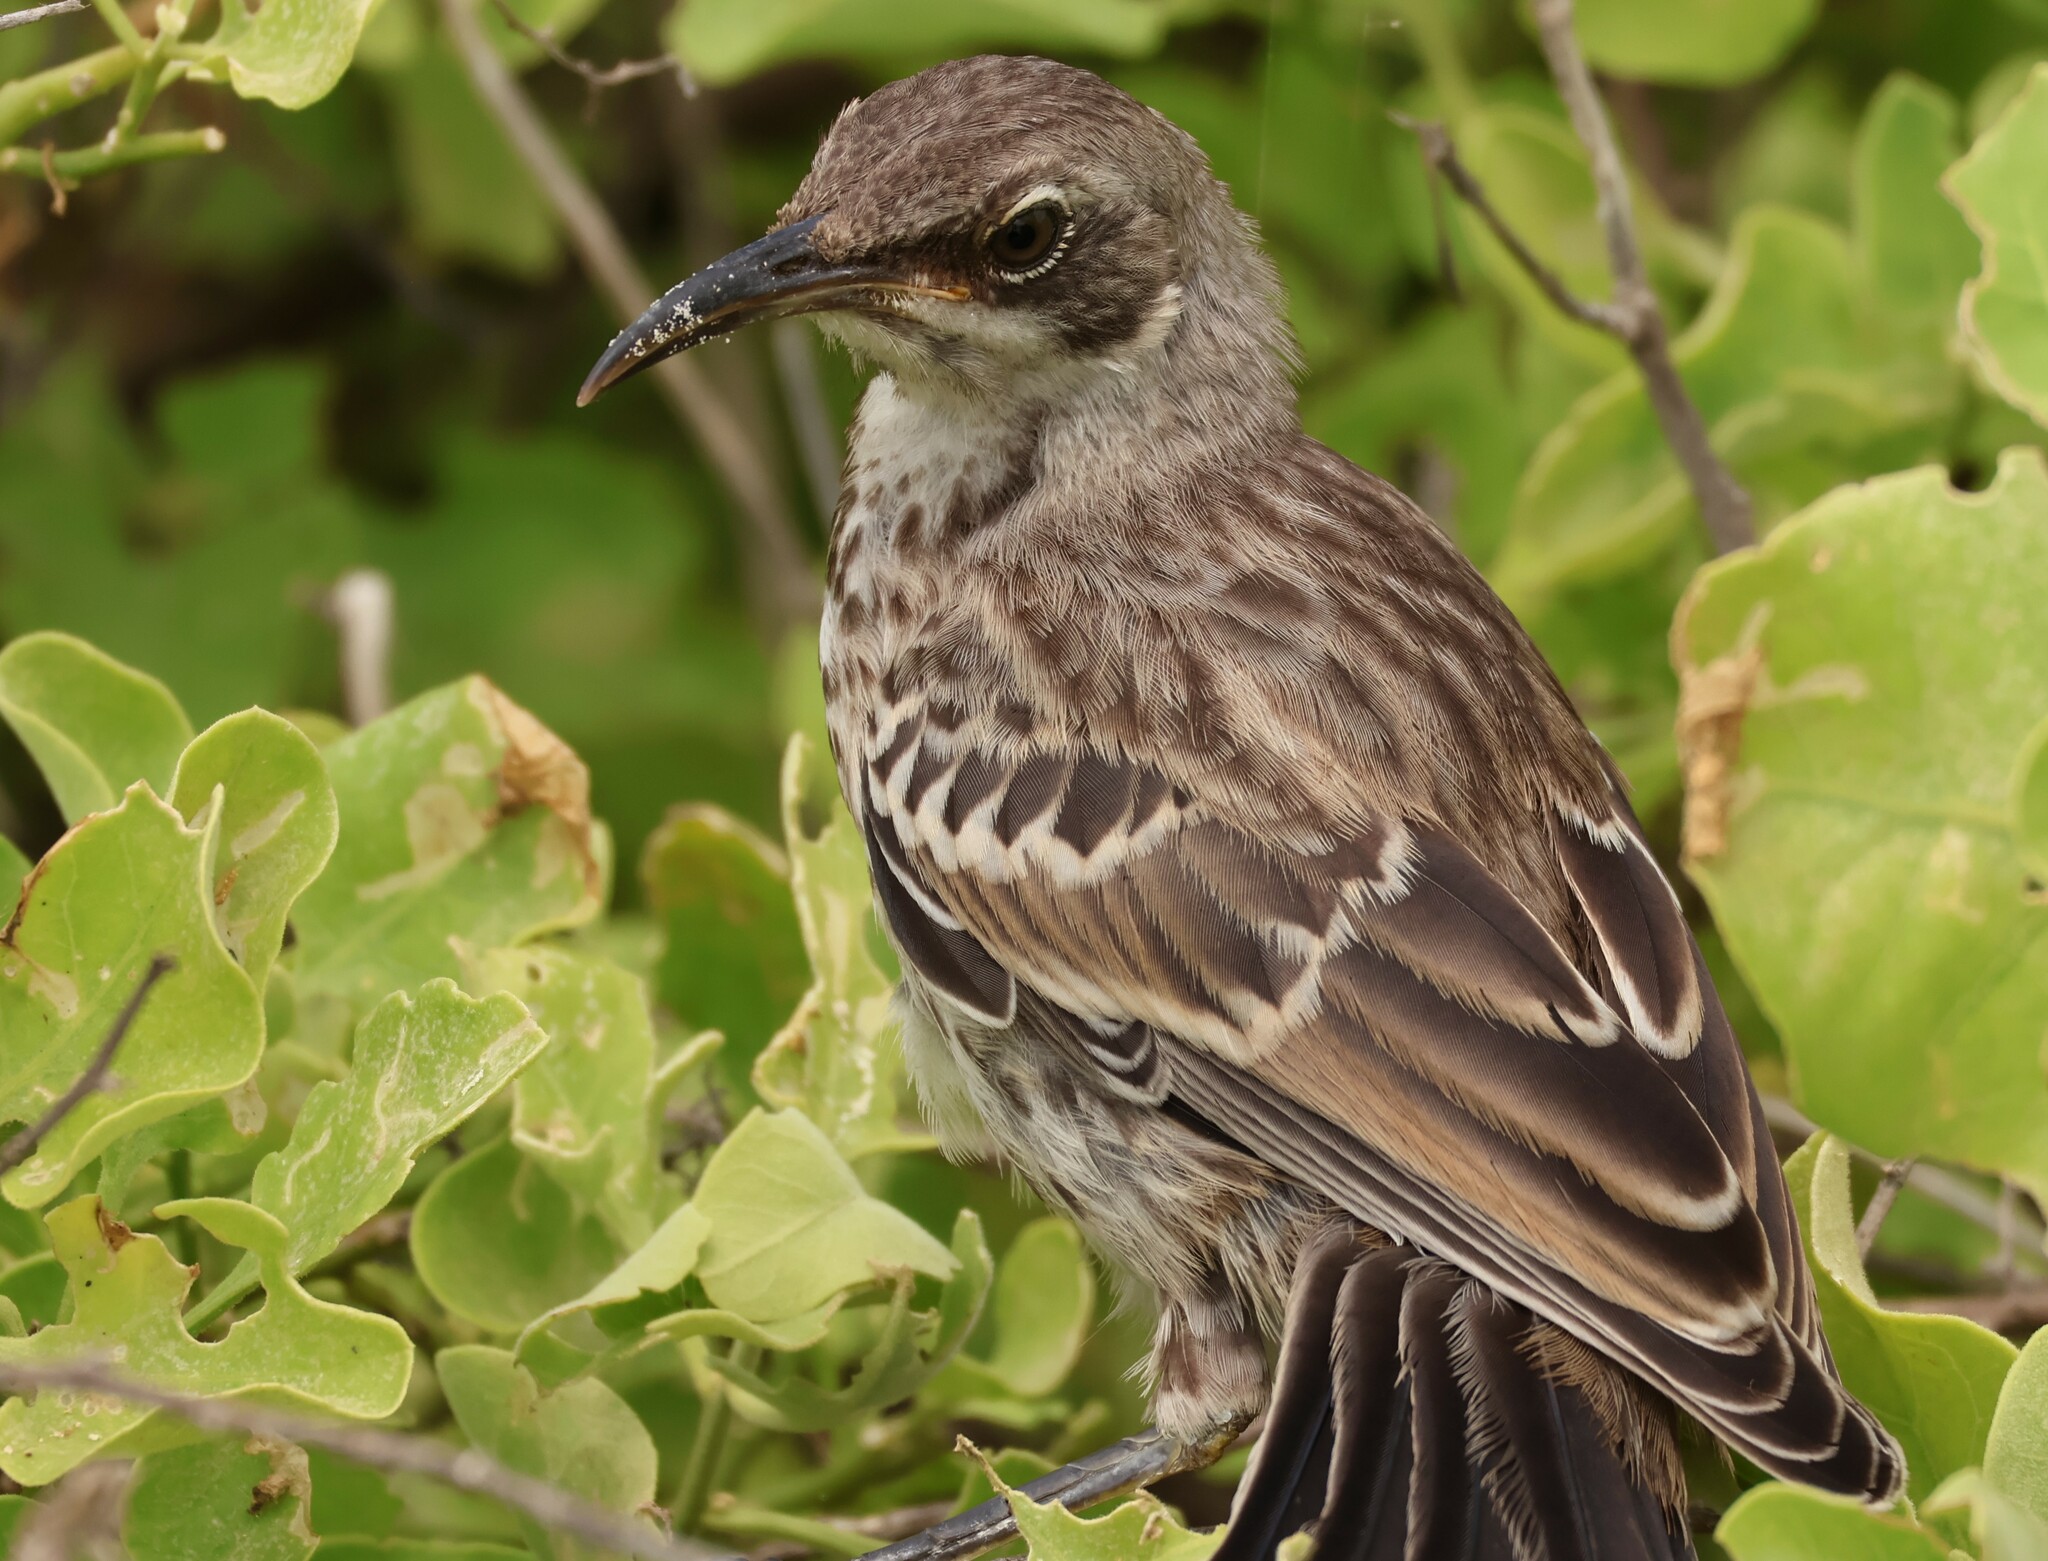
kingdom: Animalia
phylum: Chordata
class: Aves
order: Passeriformes
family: Mimidae
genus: Mimus
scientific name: Mimus macdonaldi
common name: Espanola mockingbird
